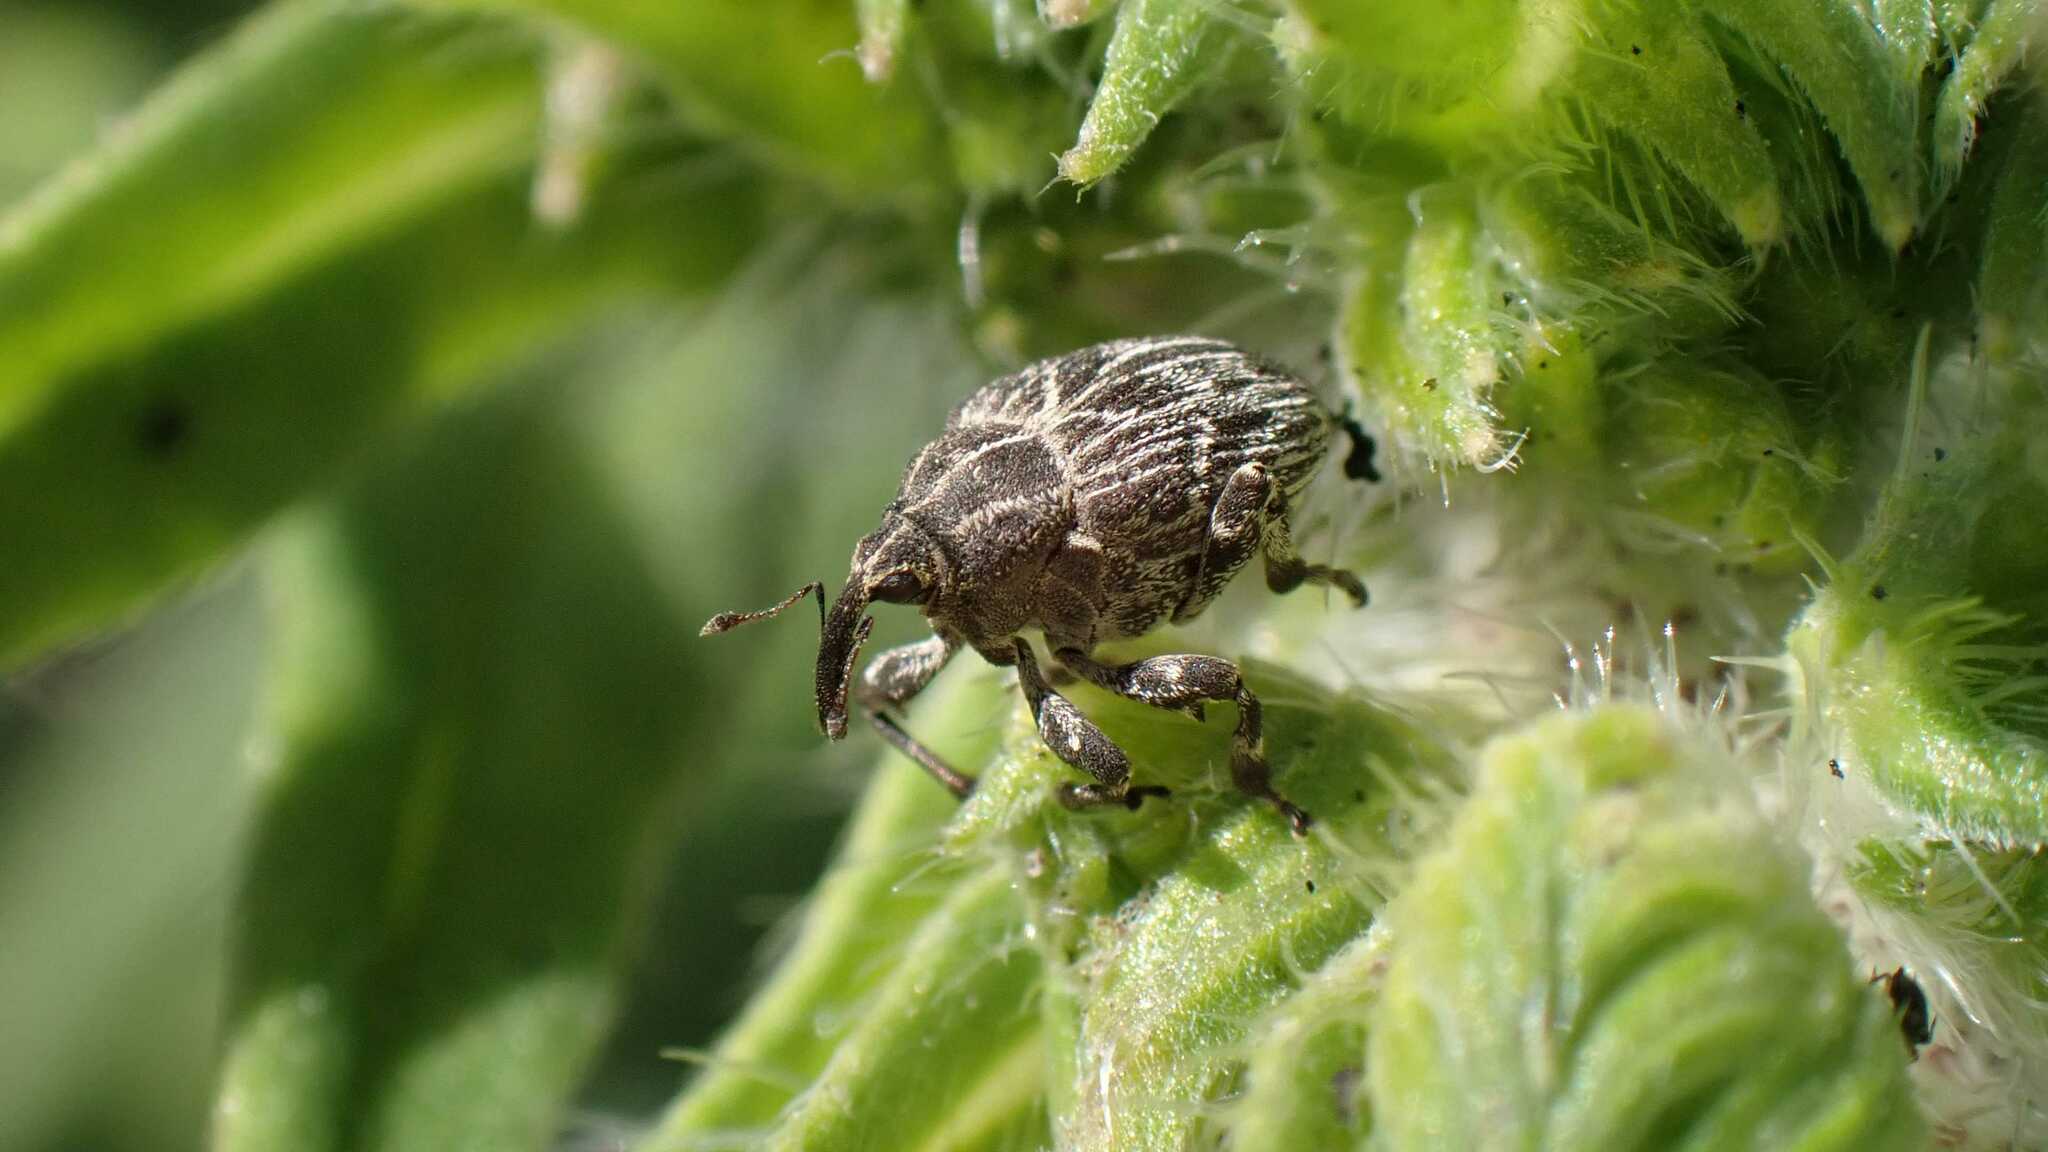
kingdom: Animalia
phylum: Arthropoda
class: Insecta
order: Coleoptera
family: Curculionidae
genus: Mogulones
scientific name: Mogulones geographicus
